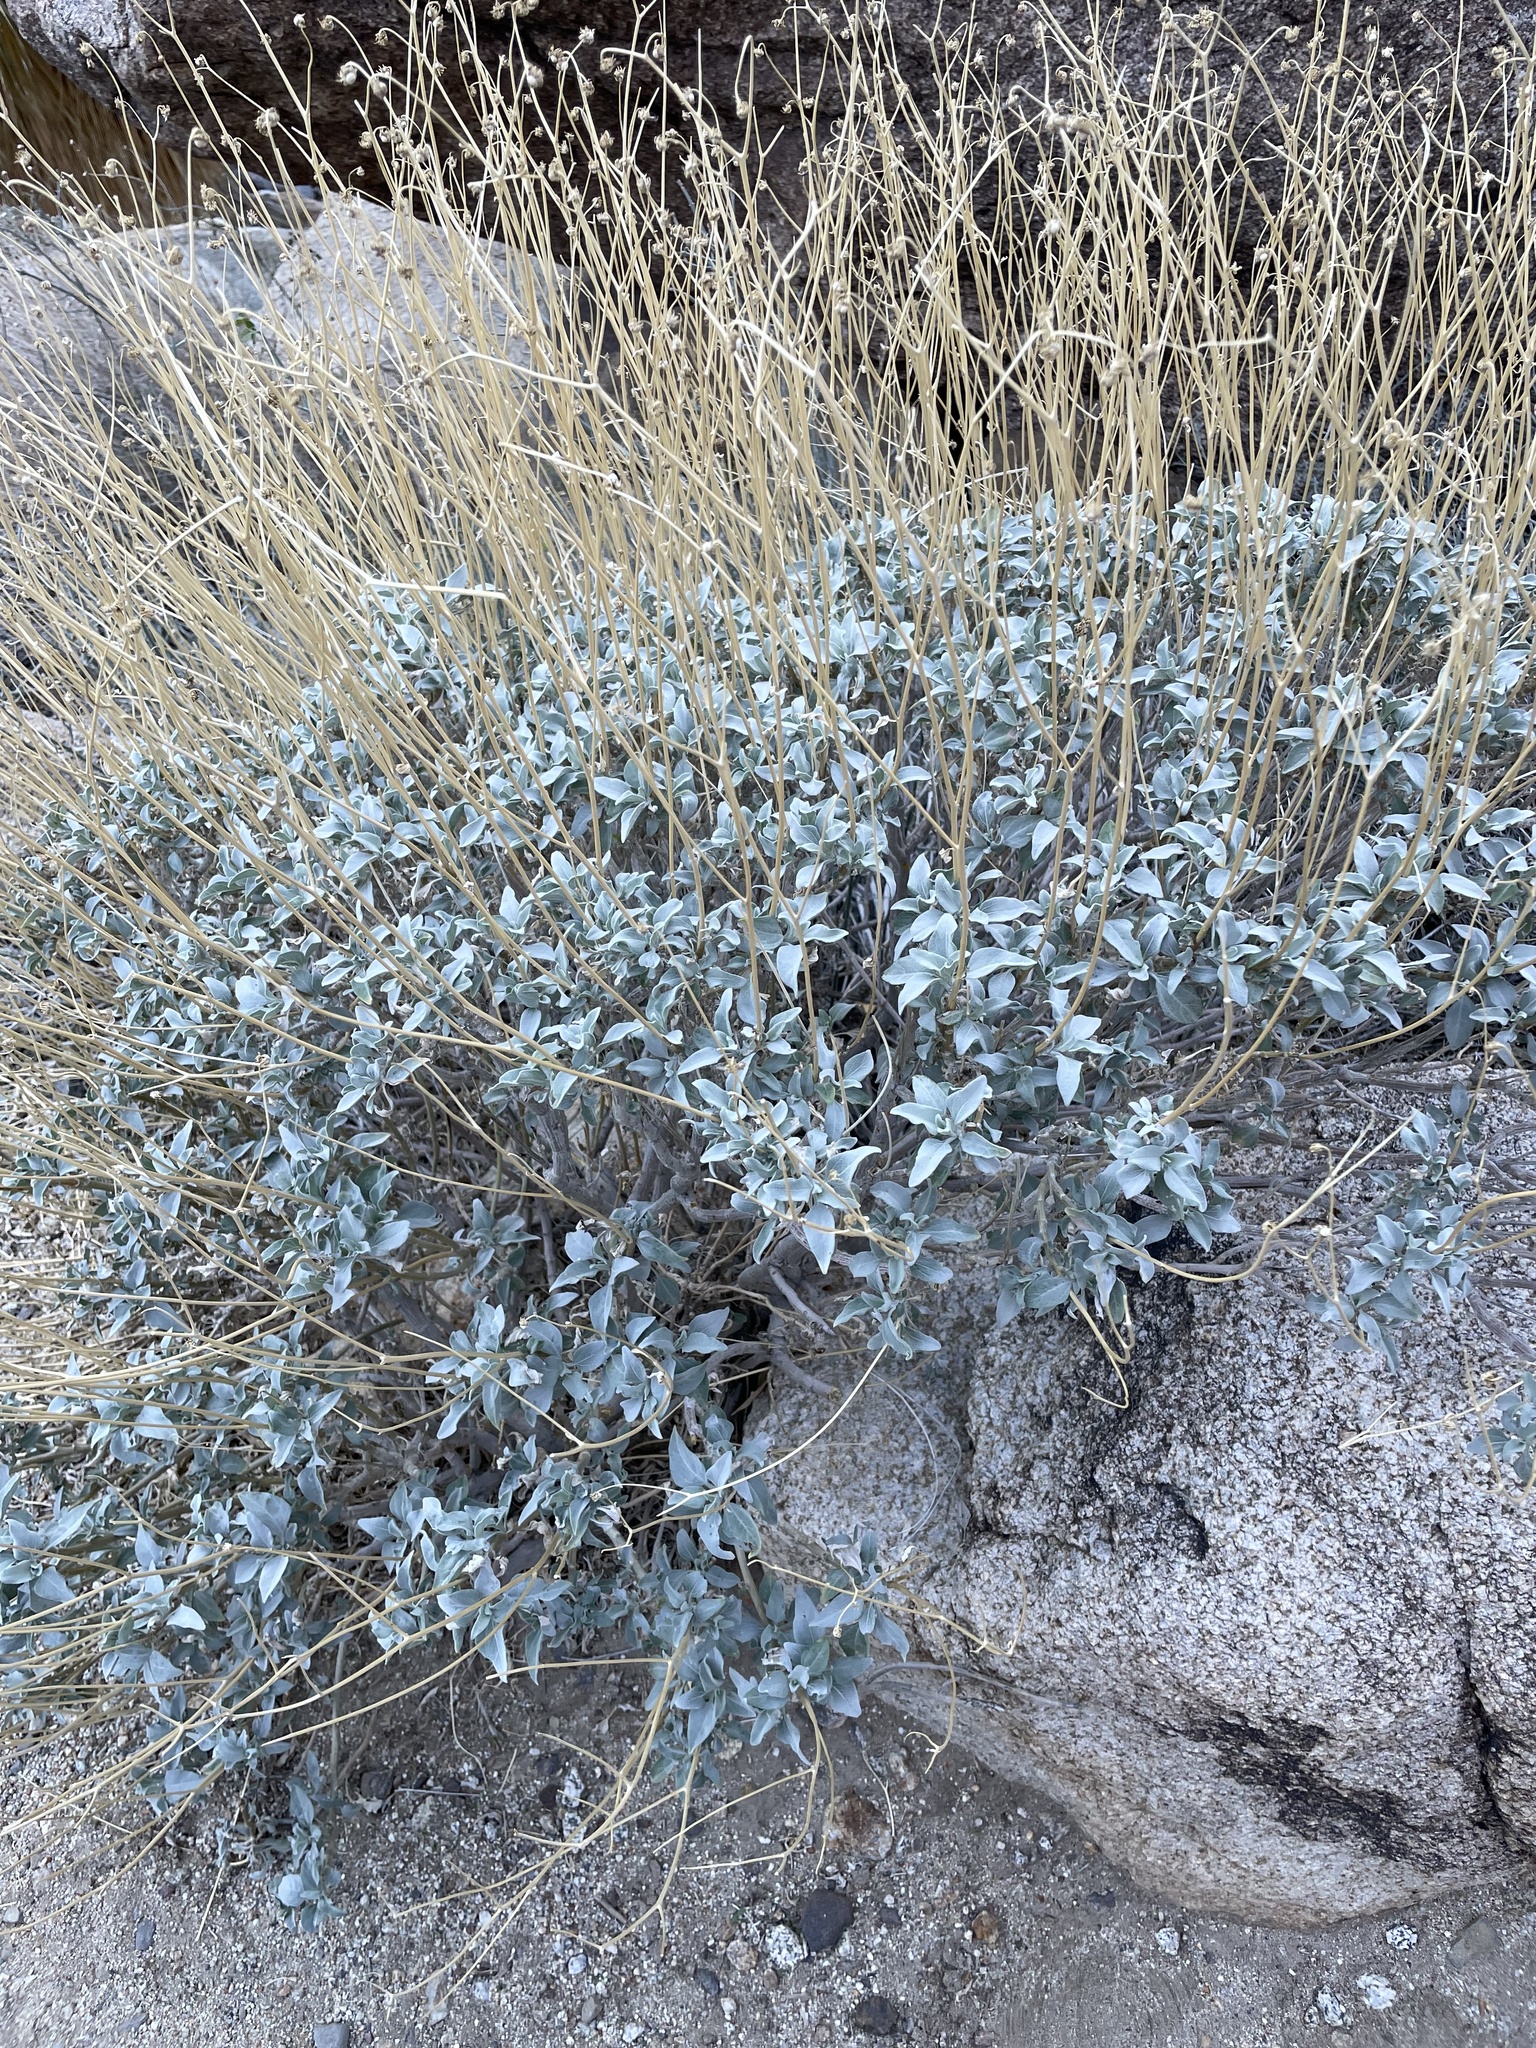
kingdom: Plantae
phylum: Tracheophyta
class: Magnoliopsida
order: Asterales
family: Asteraceae
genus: Encelia
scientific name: Encelia farinosa
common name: Brittlebush
